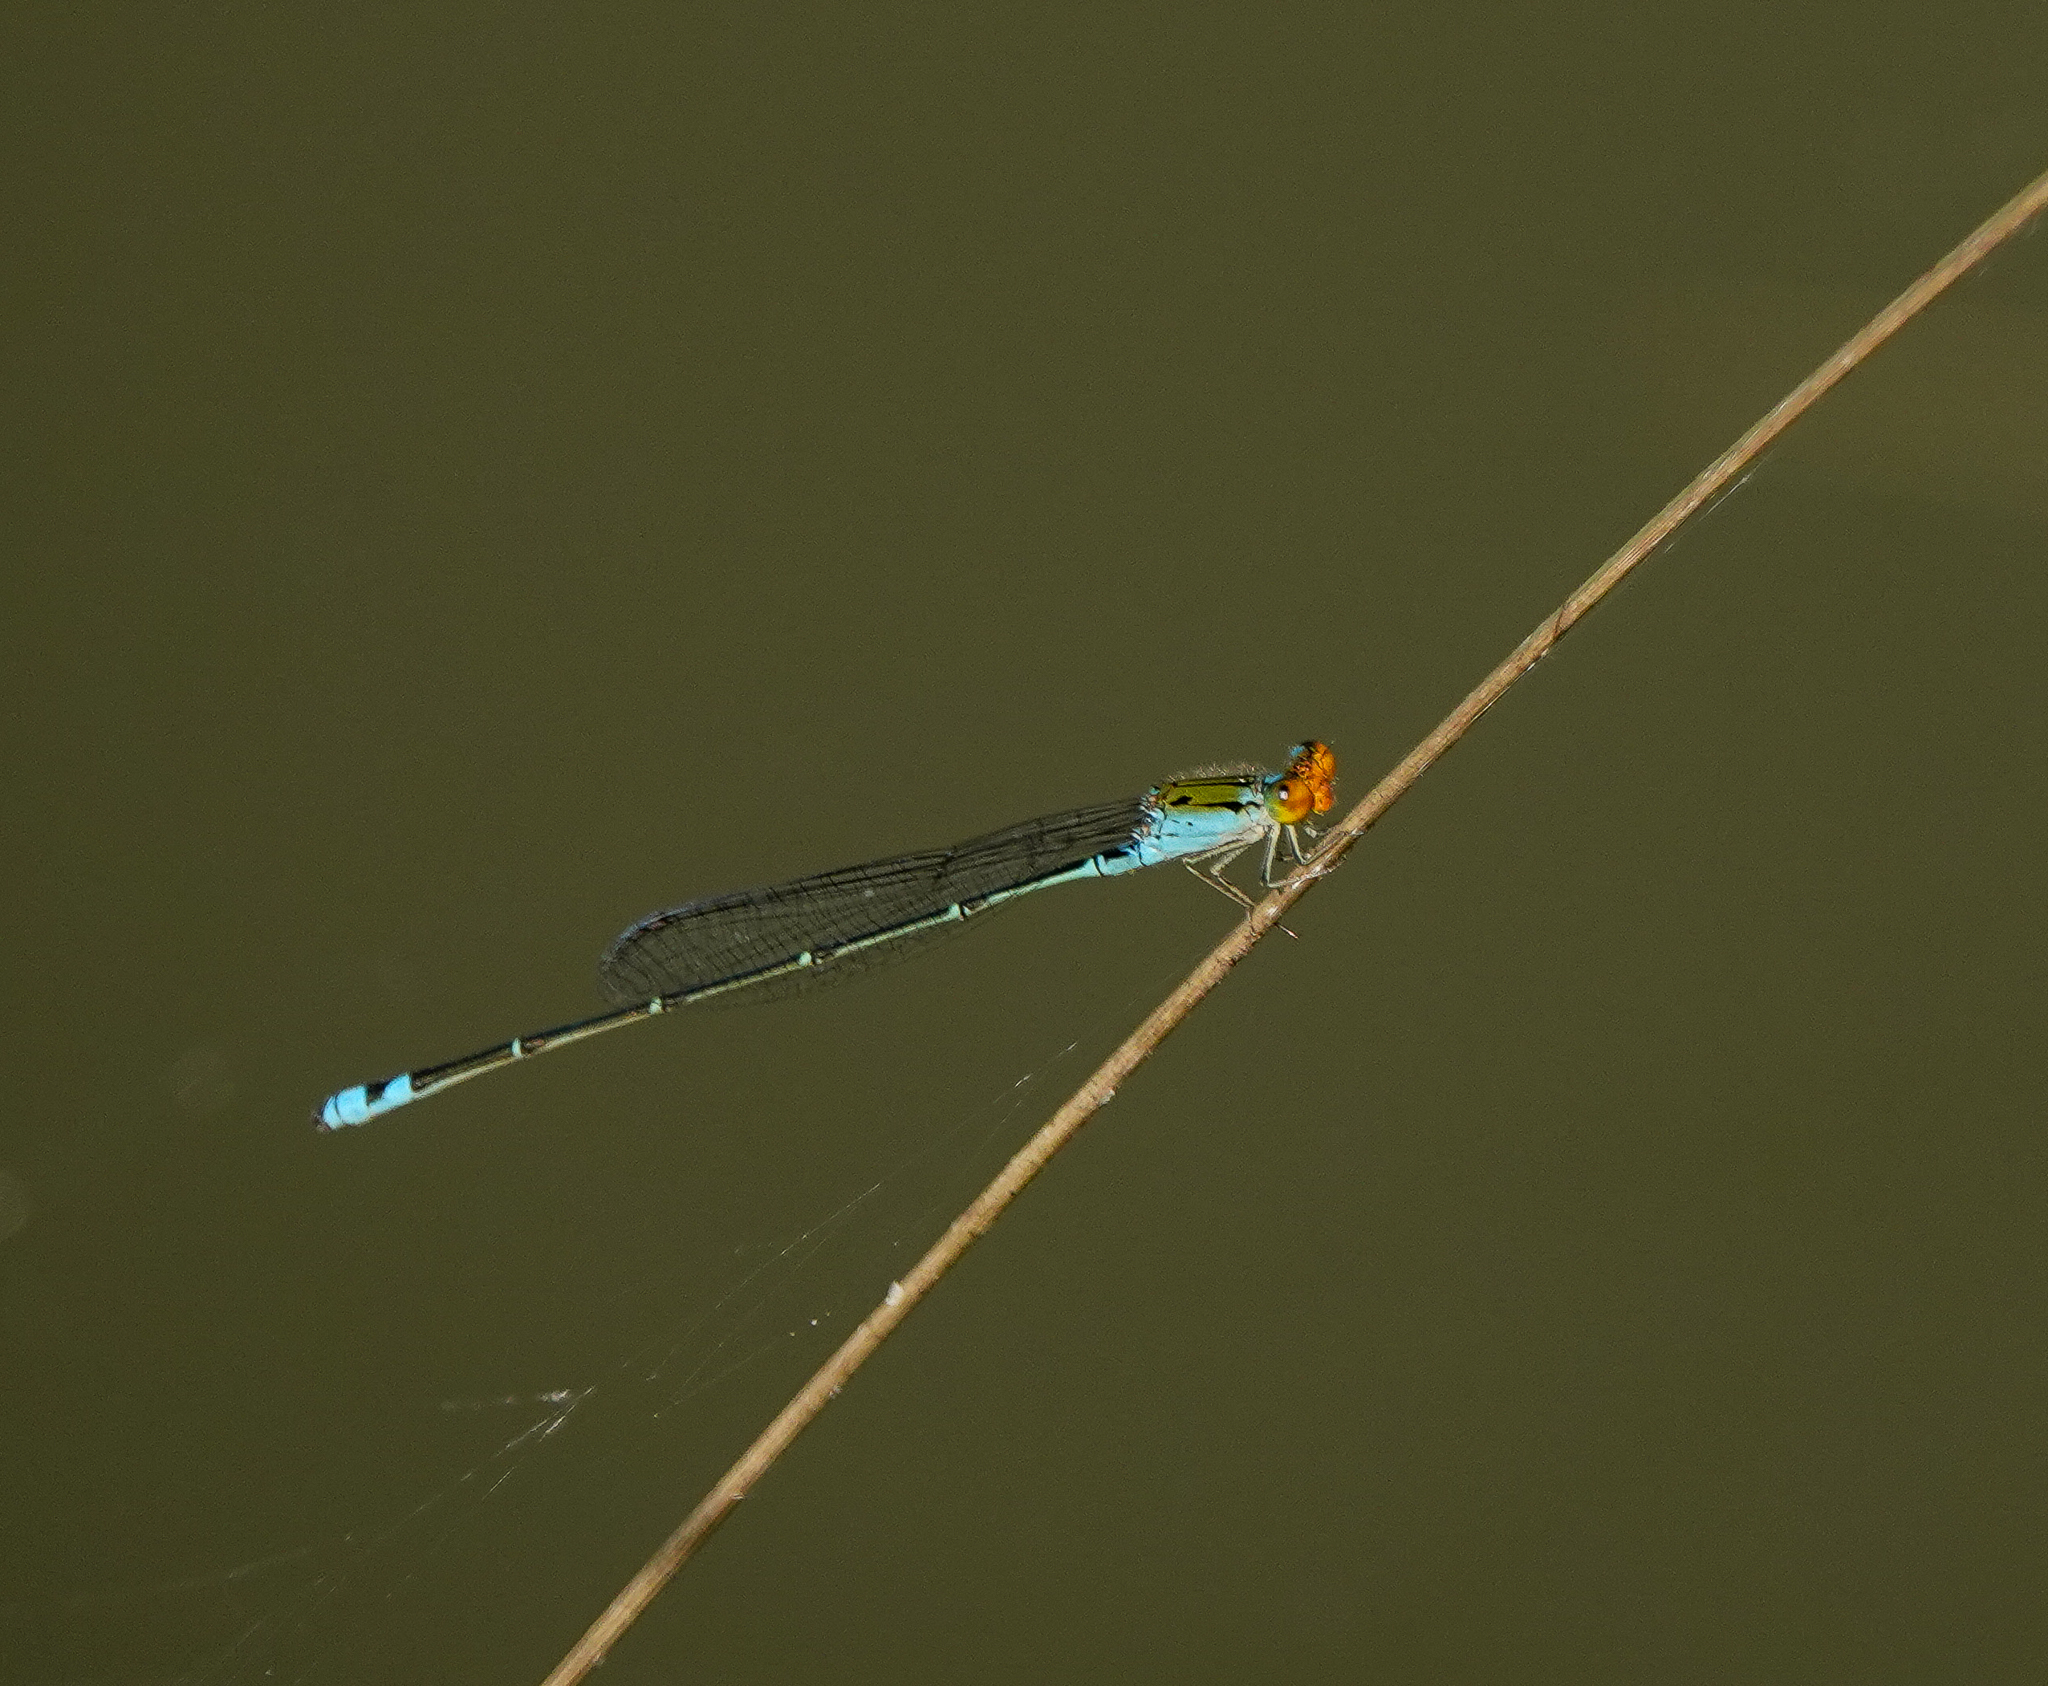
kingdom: Animalia
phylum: Arthropoda
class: Insecta
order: Odonata
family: Coenagrionidae
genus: Pseudagrion
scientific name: Pseudagrion rubriceps
